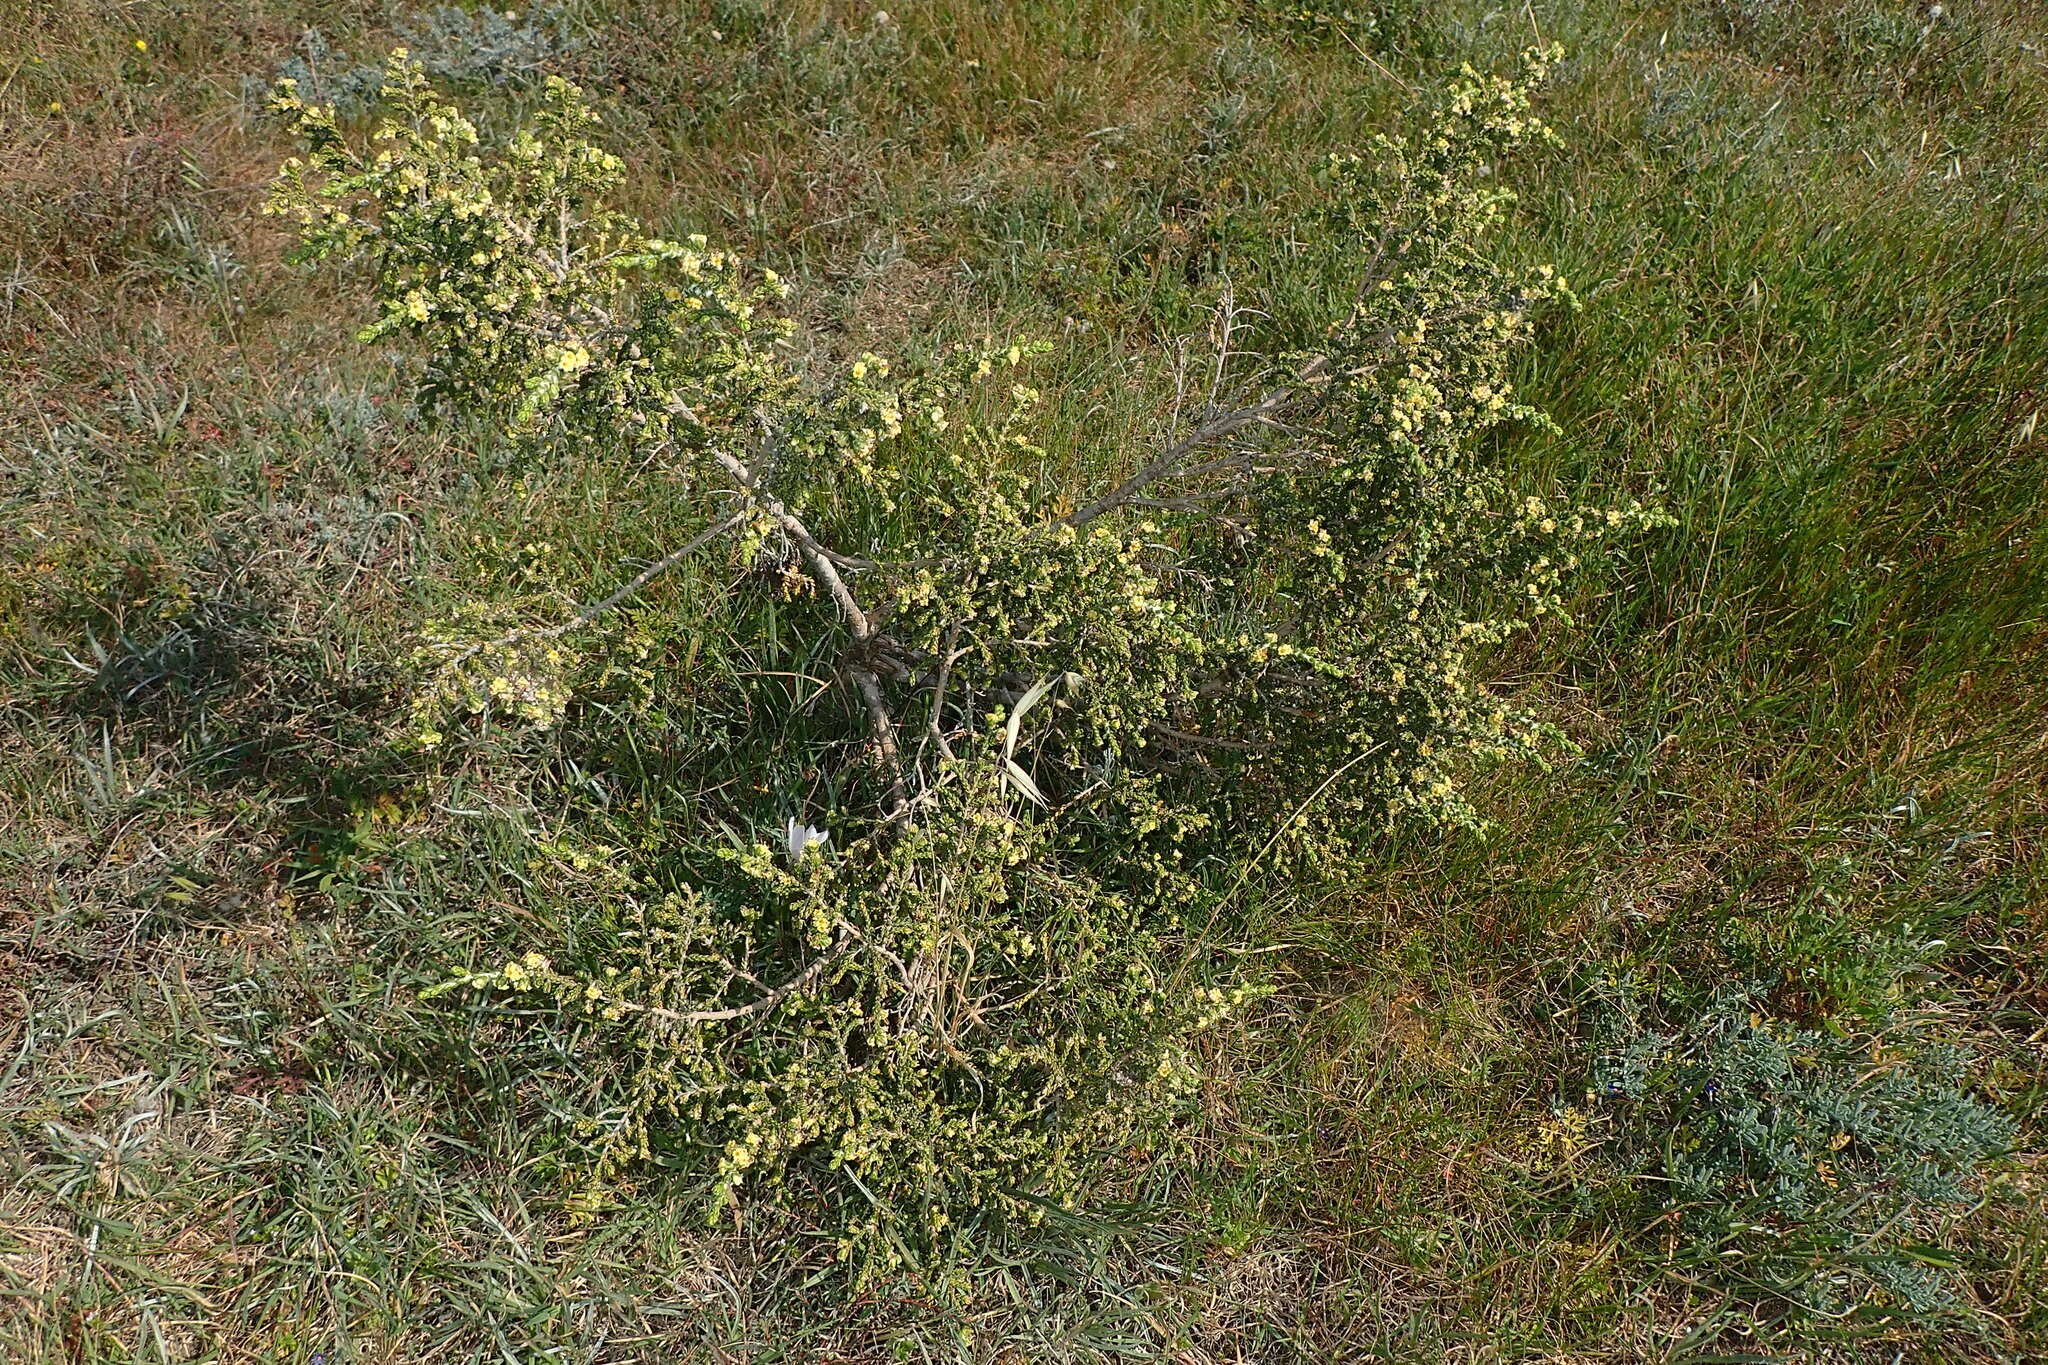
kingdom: Plantae
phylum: Tracheophyta
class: Magnoliopsida
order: Malvales
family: Thymelaeaceae
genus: Thymelaea
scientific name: Thymelaea hirsuta
